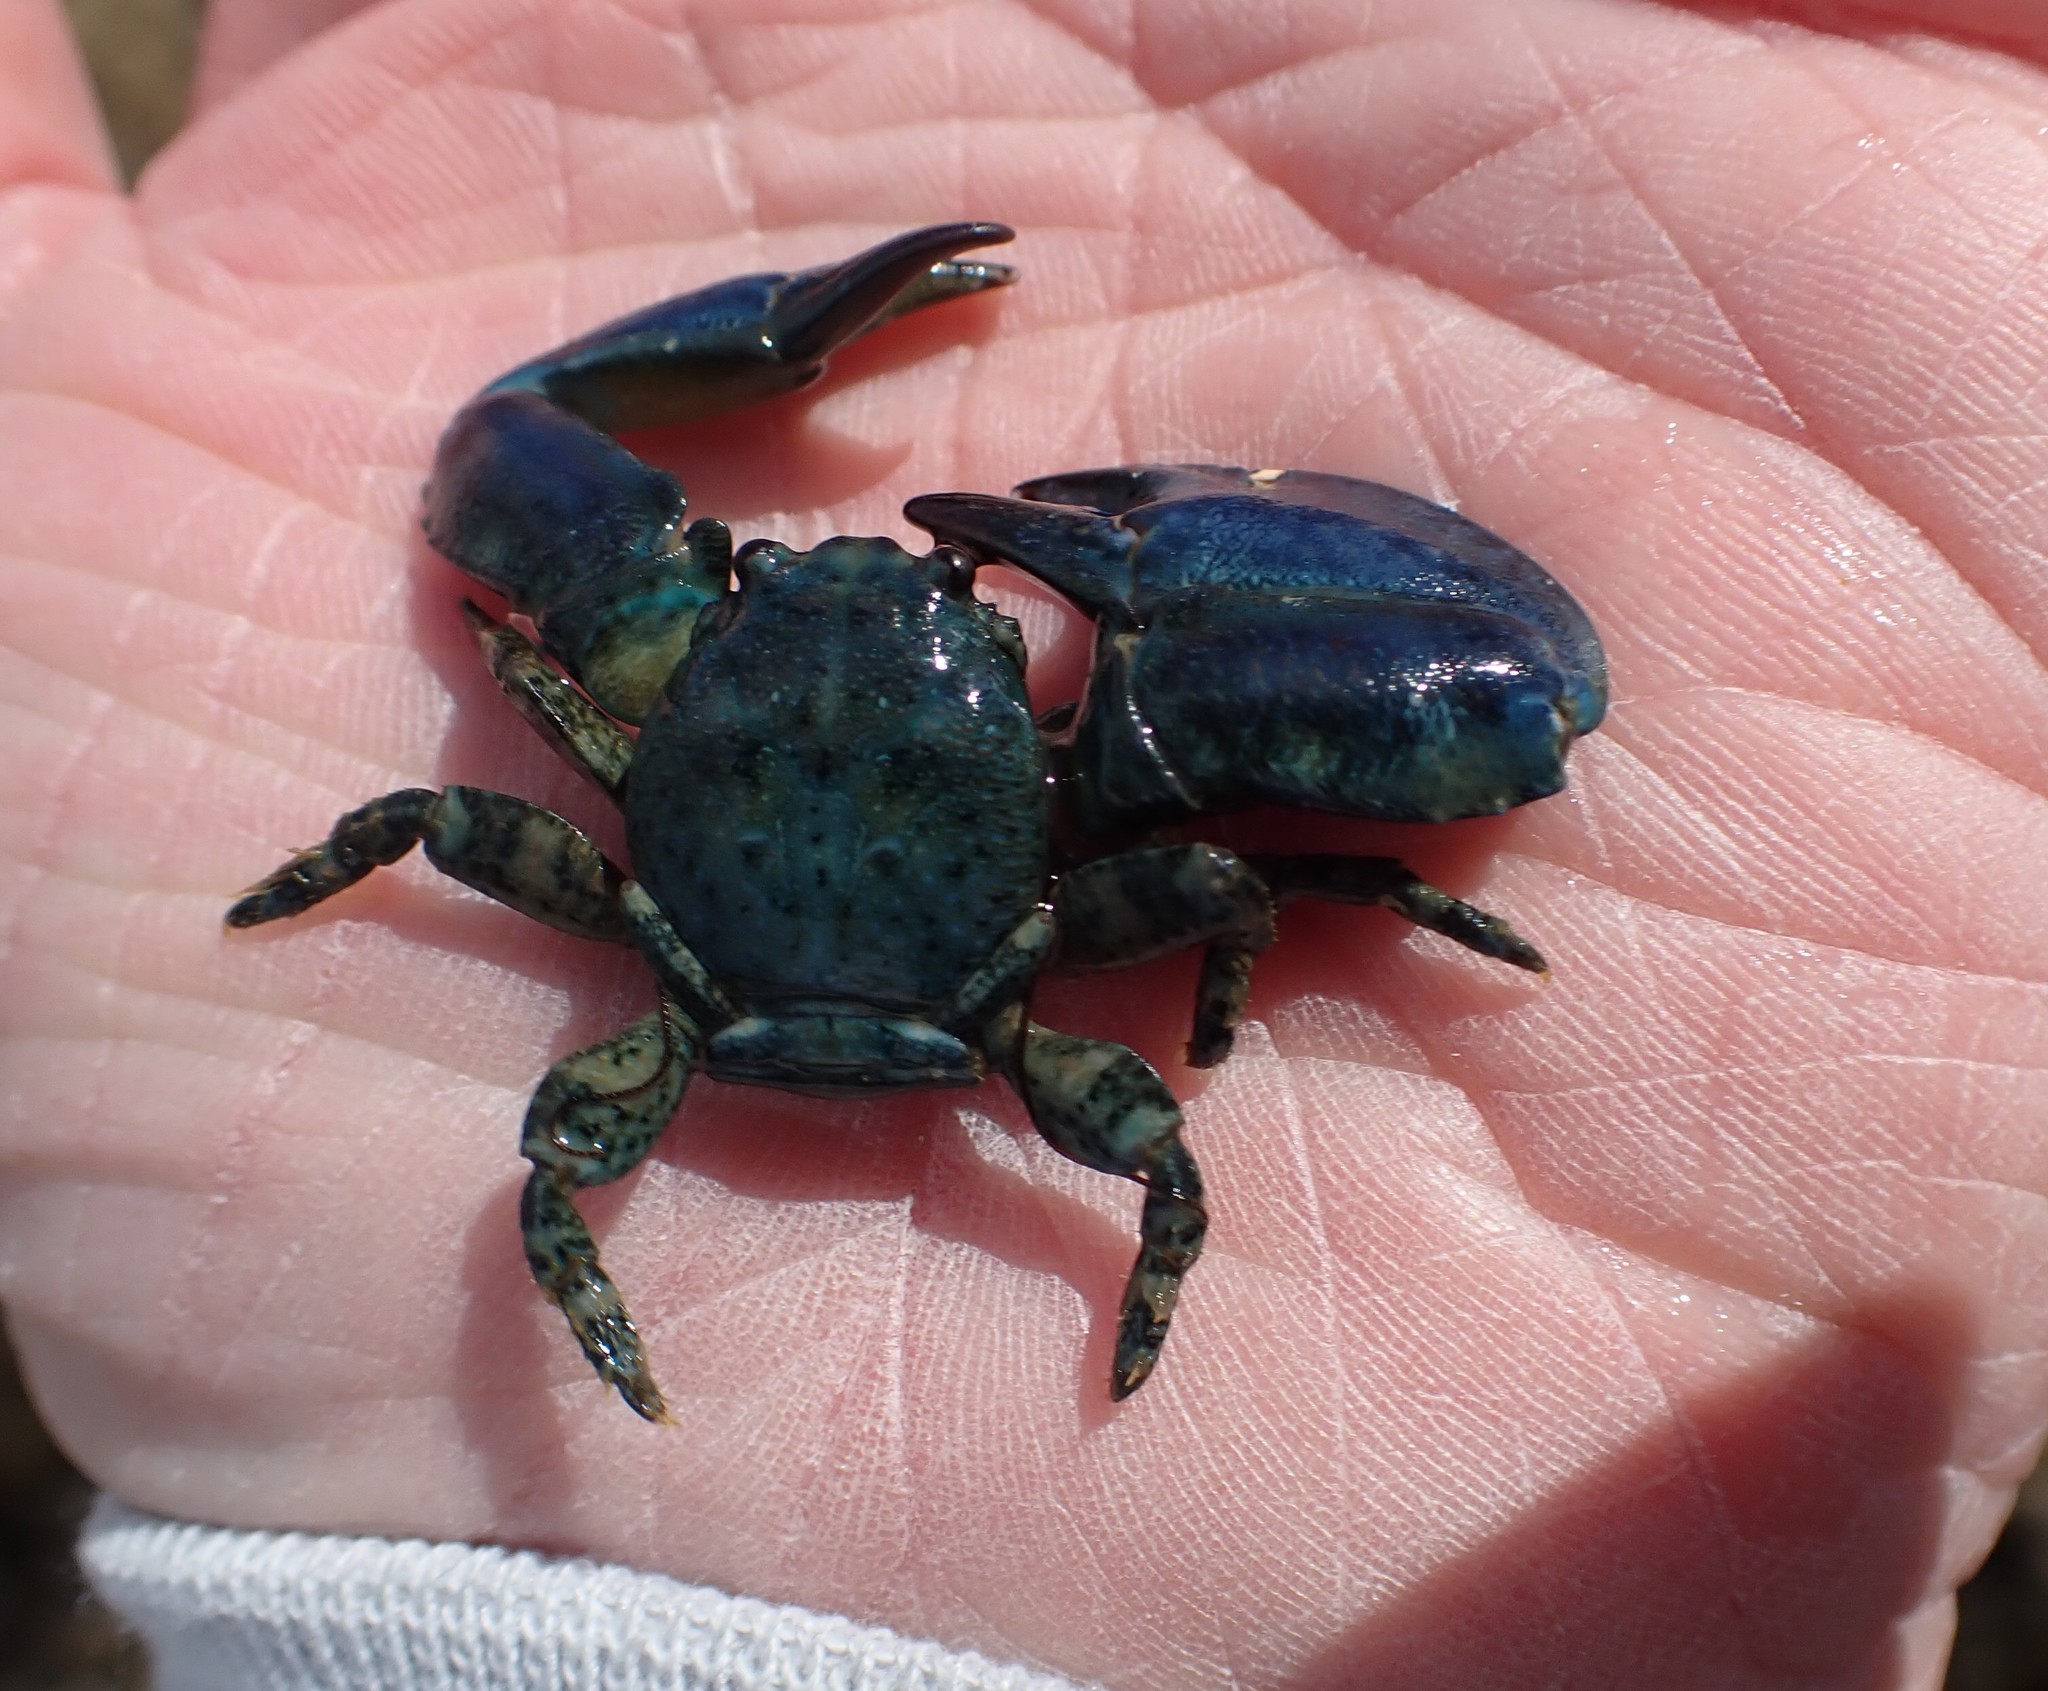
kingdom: Animalia
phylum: Arthropoda
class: Malacostraca
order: Decapoda
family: Porcellanidae
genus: Petrolisthes
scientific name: Petrolisthes elongatus
